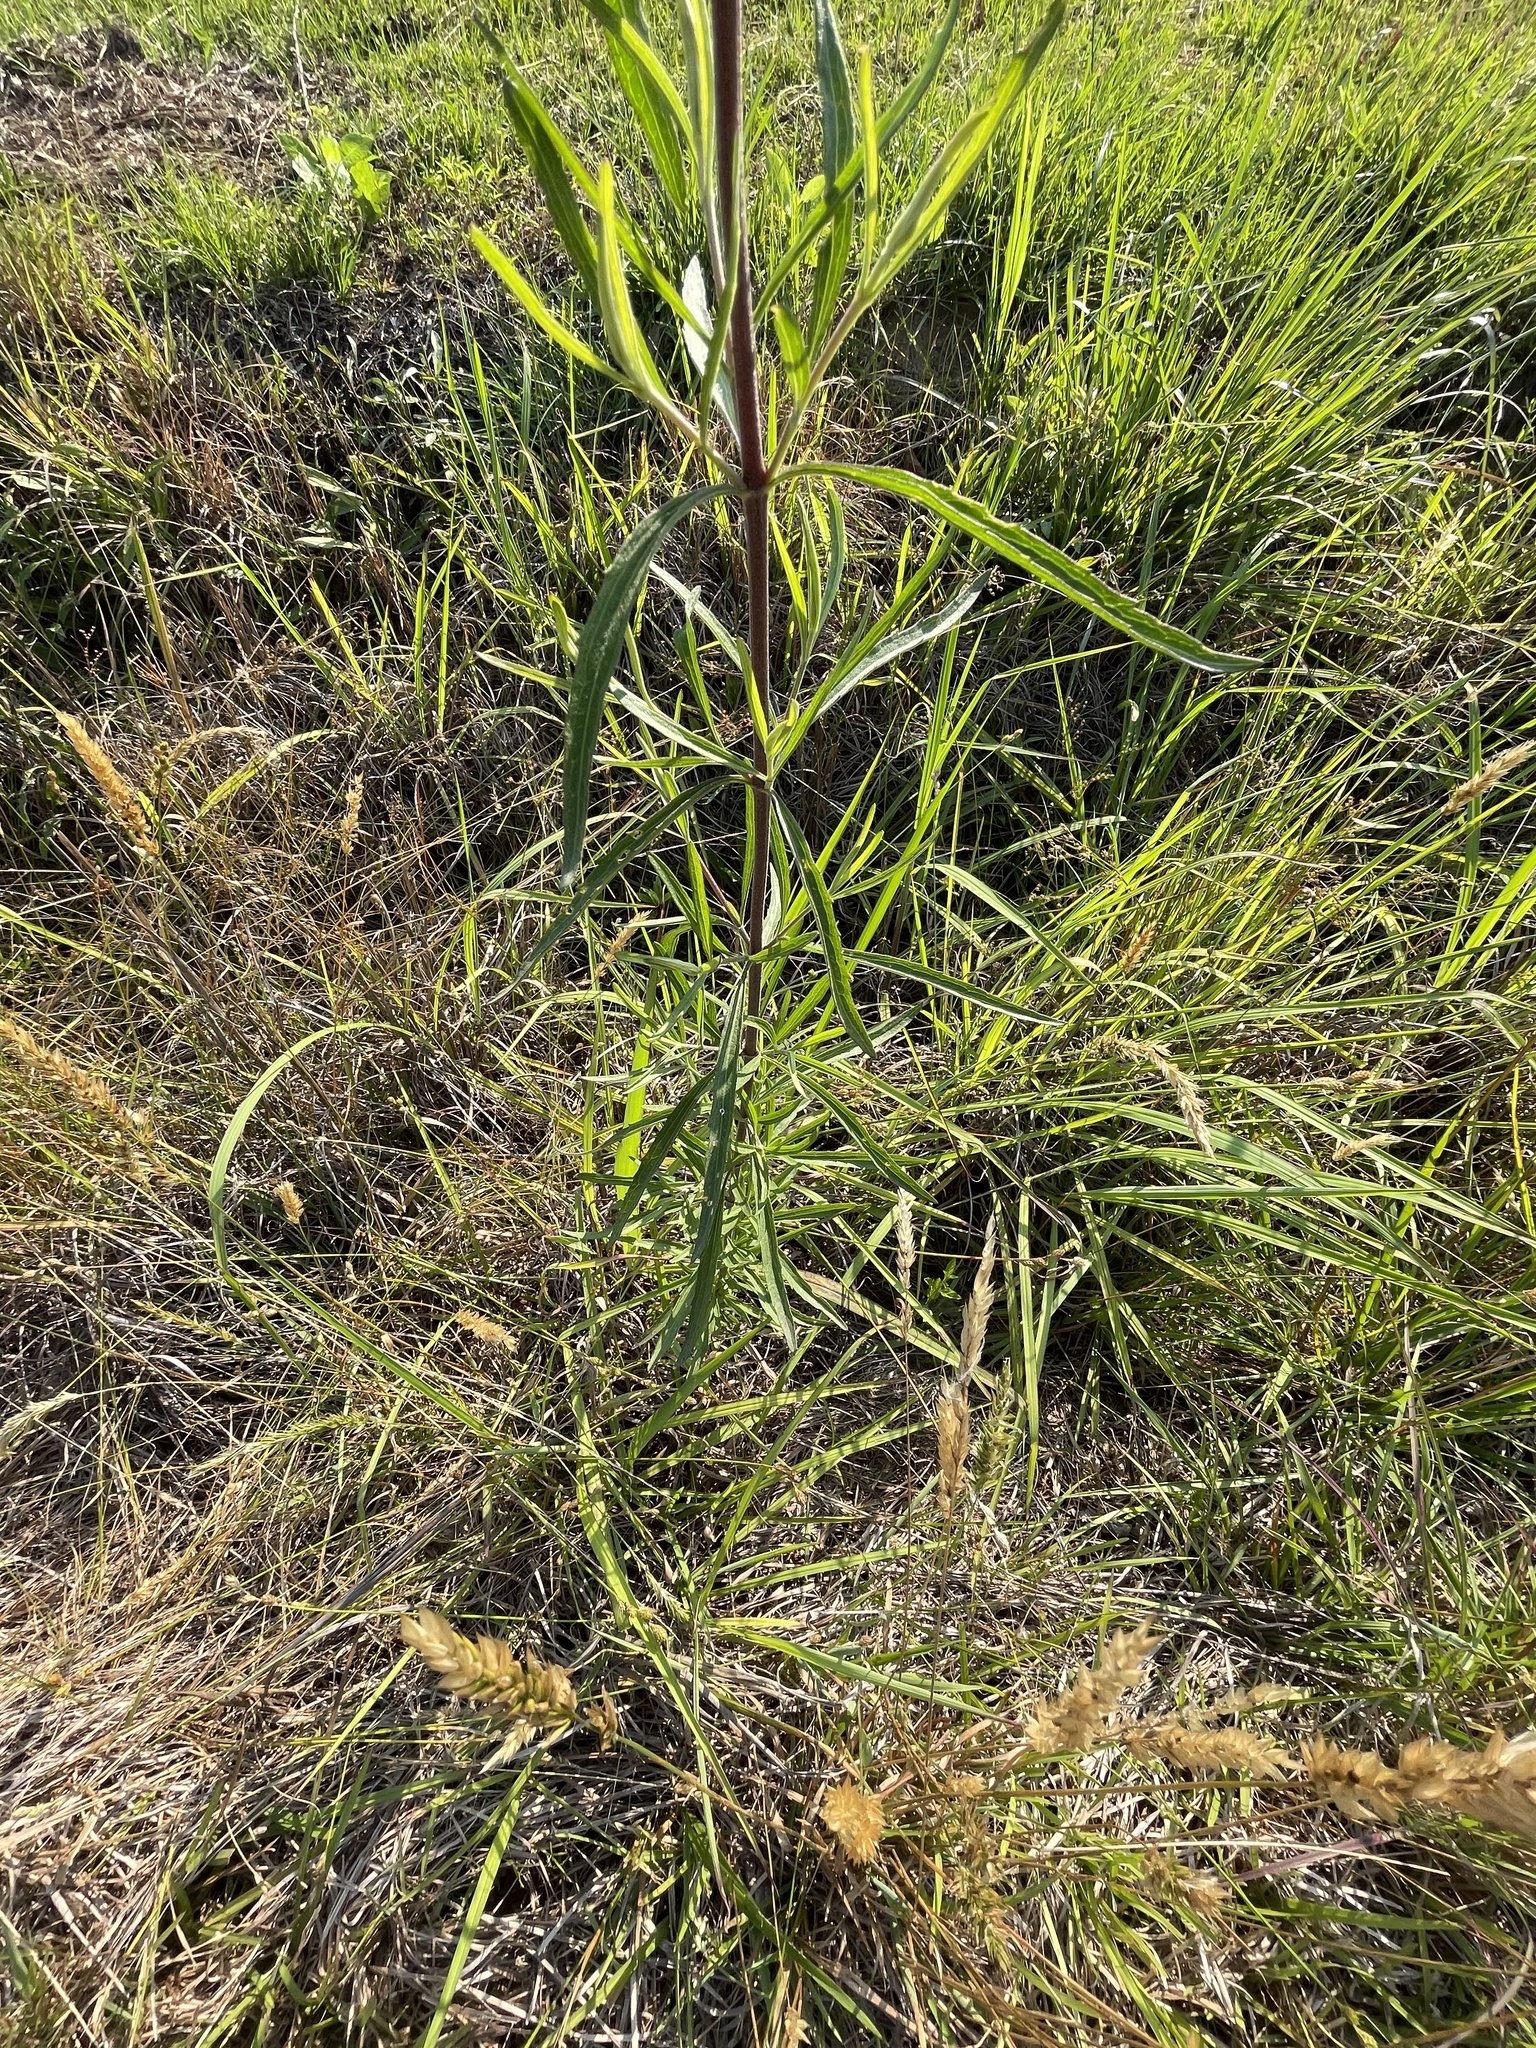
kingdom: Plantae
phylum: Tracheophyta
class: Magnoliopsida
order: Asterales
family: Asteraceae
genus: Eupatorium
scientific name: Eupatorium torreyanum
